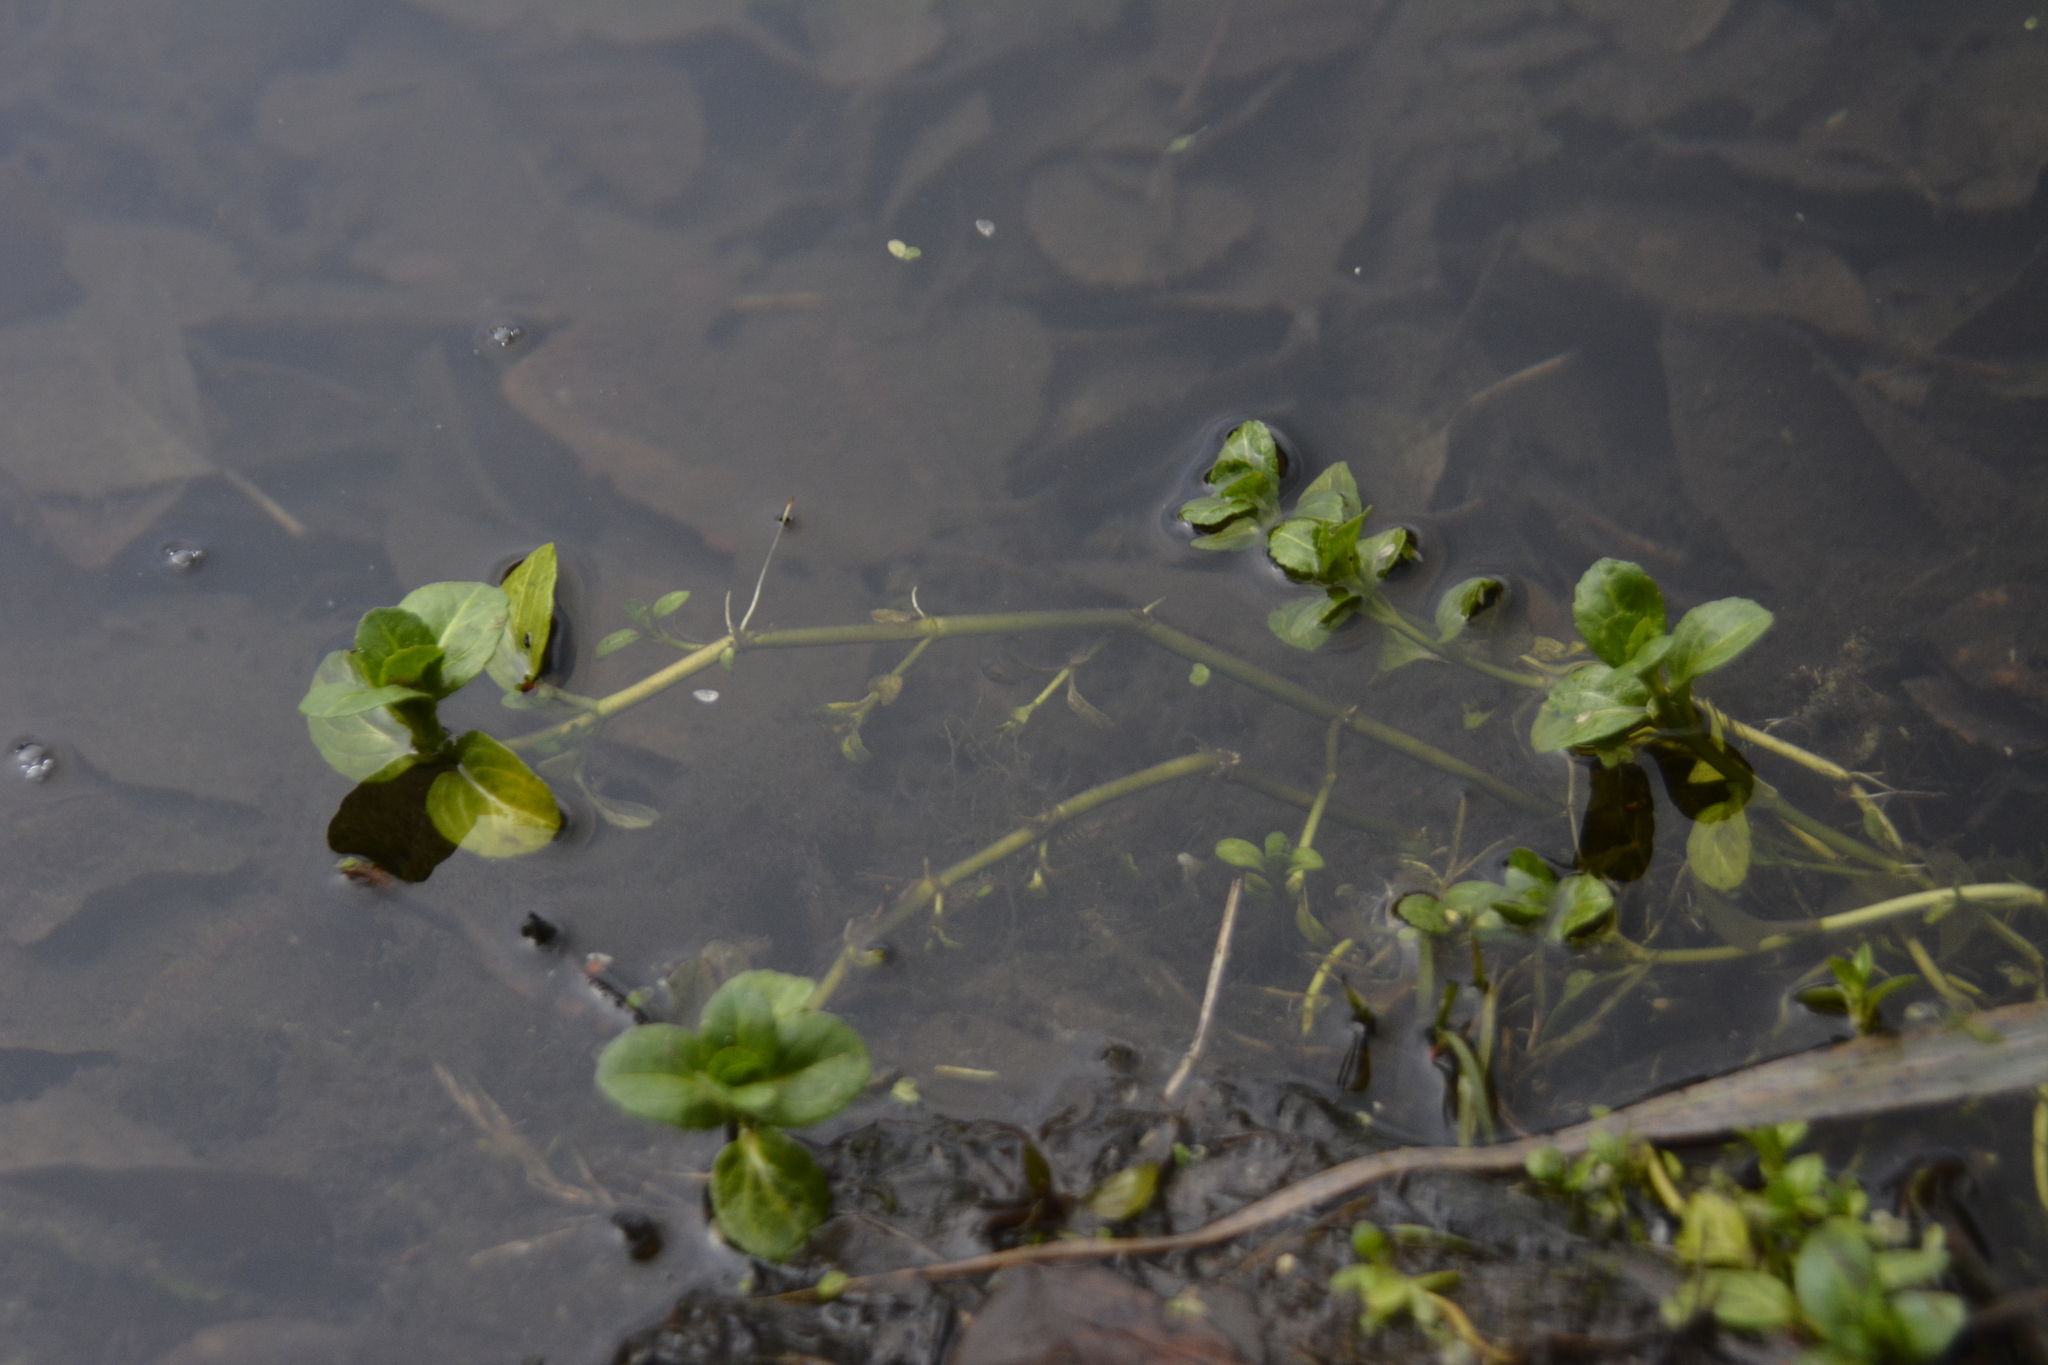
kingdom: Plantae
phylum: Tracheophyta
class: Magnoliopsida
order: Lamiales
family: Plantaginaceae
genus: Veronica
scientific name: Veronica beccabunga
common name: Brooklime
